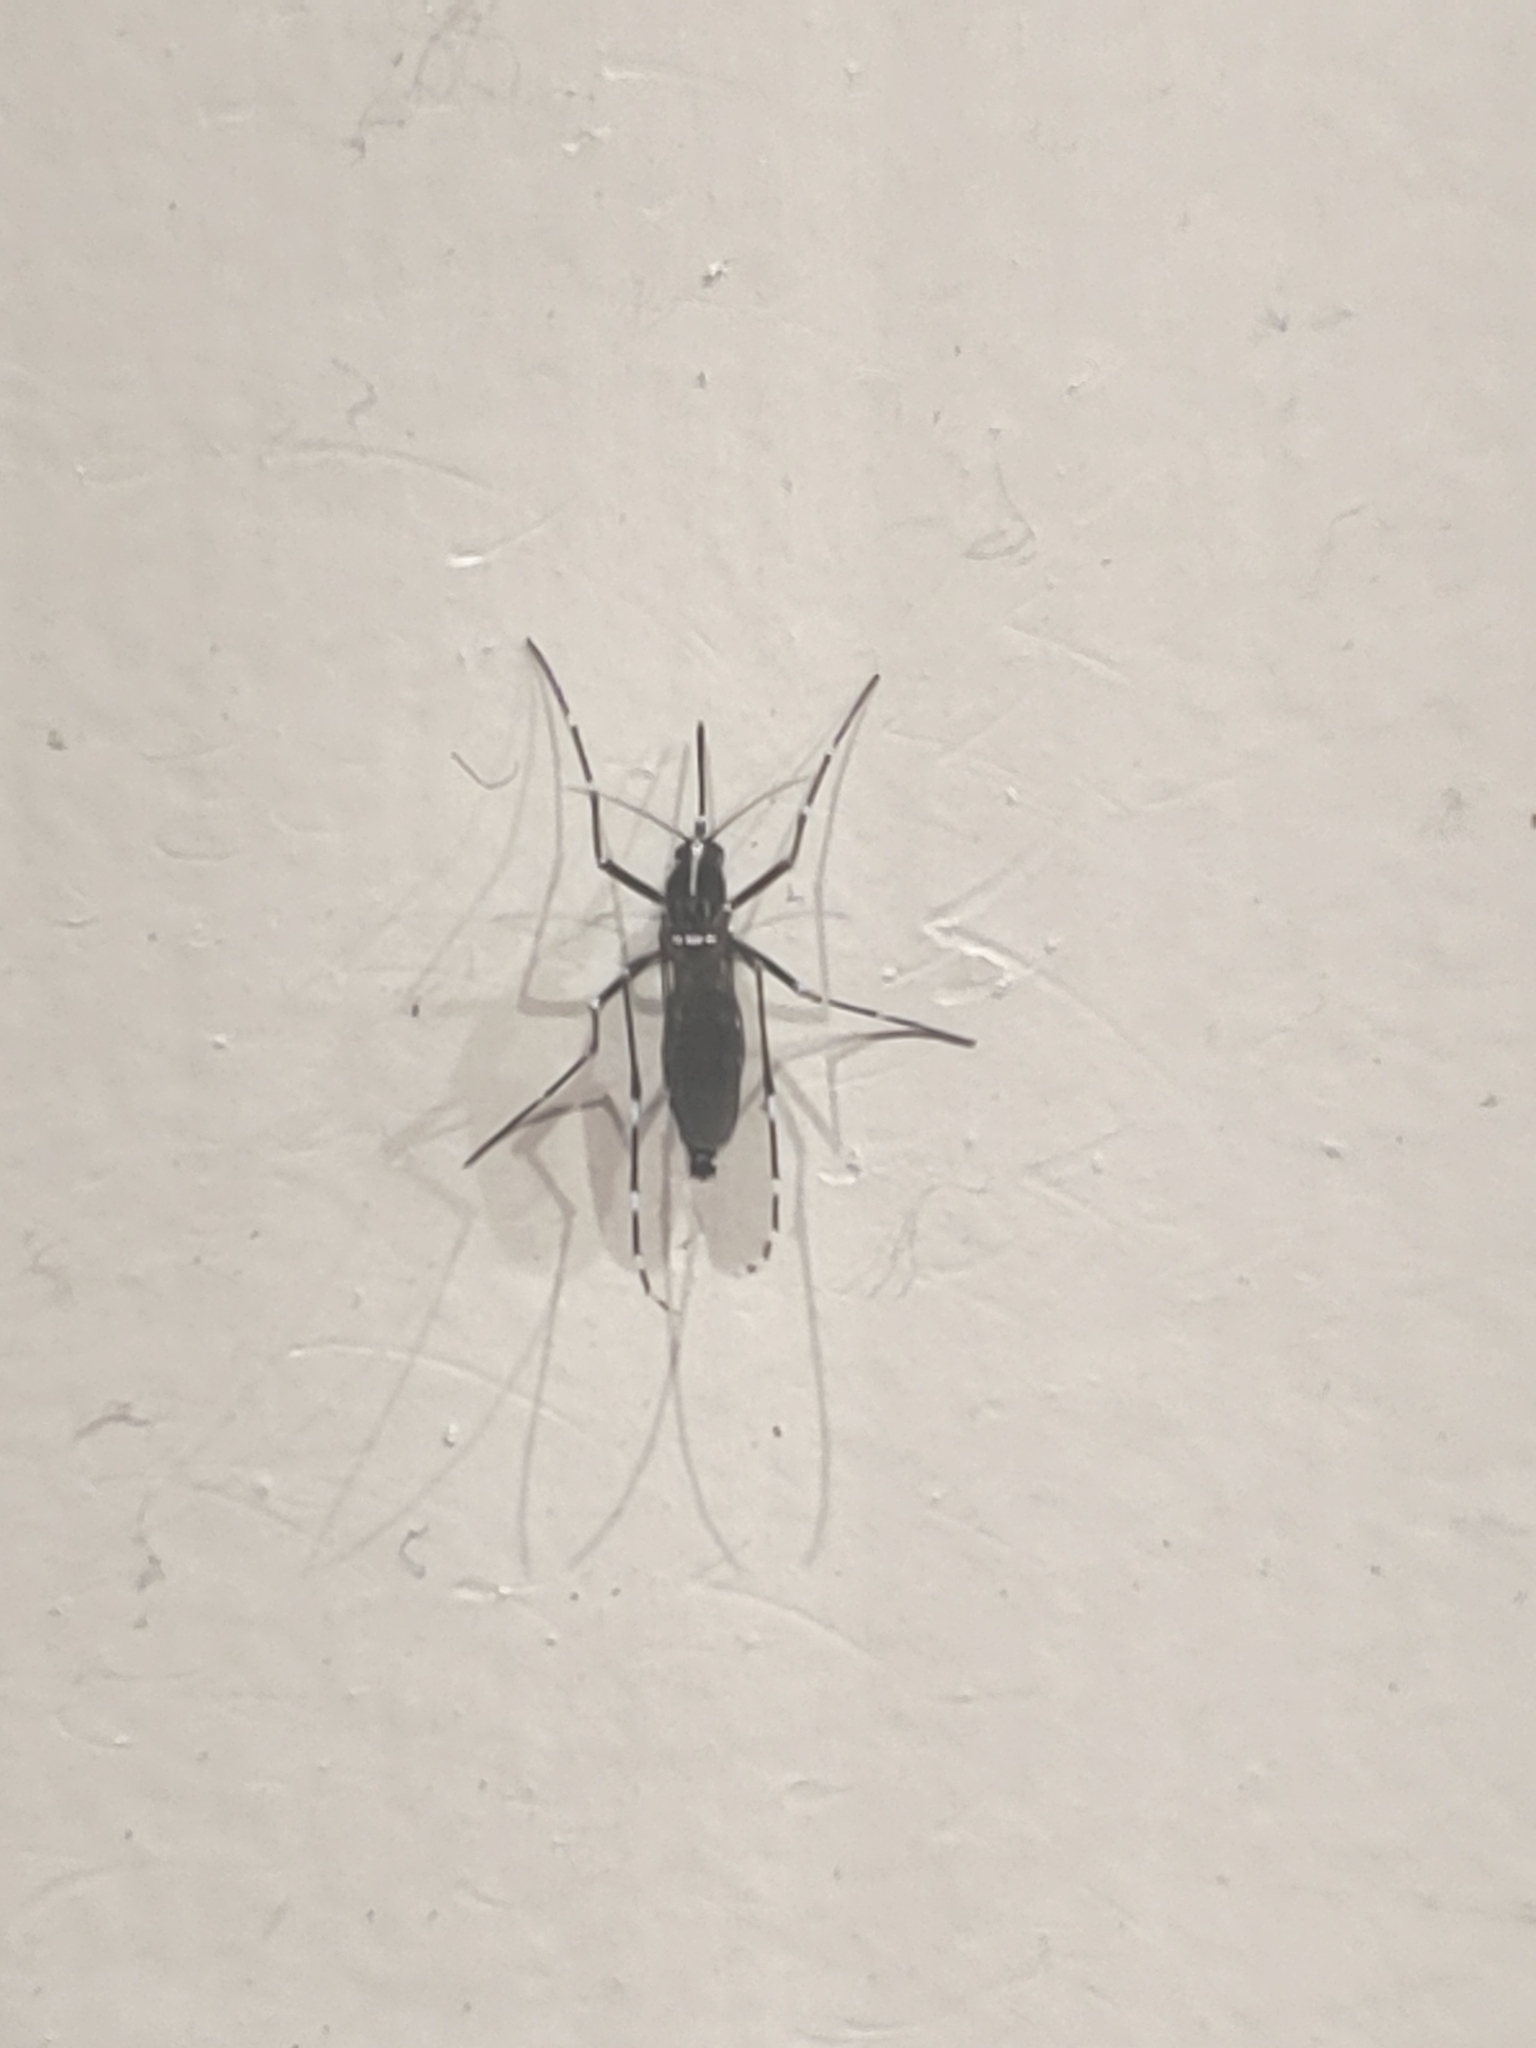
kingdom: Animalia
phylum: Arthropoda
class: Insecta
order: Diptera
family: Culicidae
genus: Aedes
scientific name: Aedes albopictus
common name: Tiger mosquito
